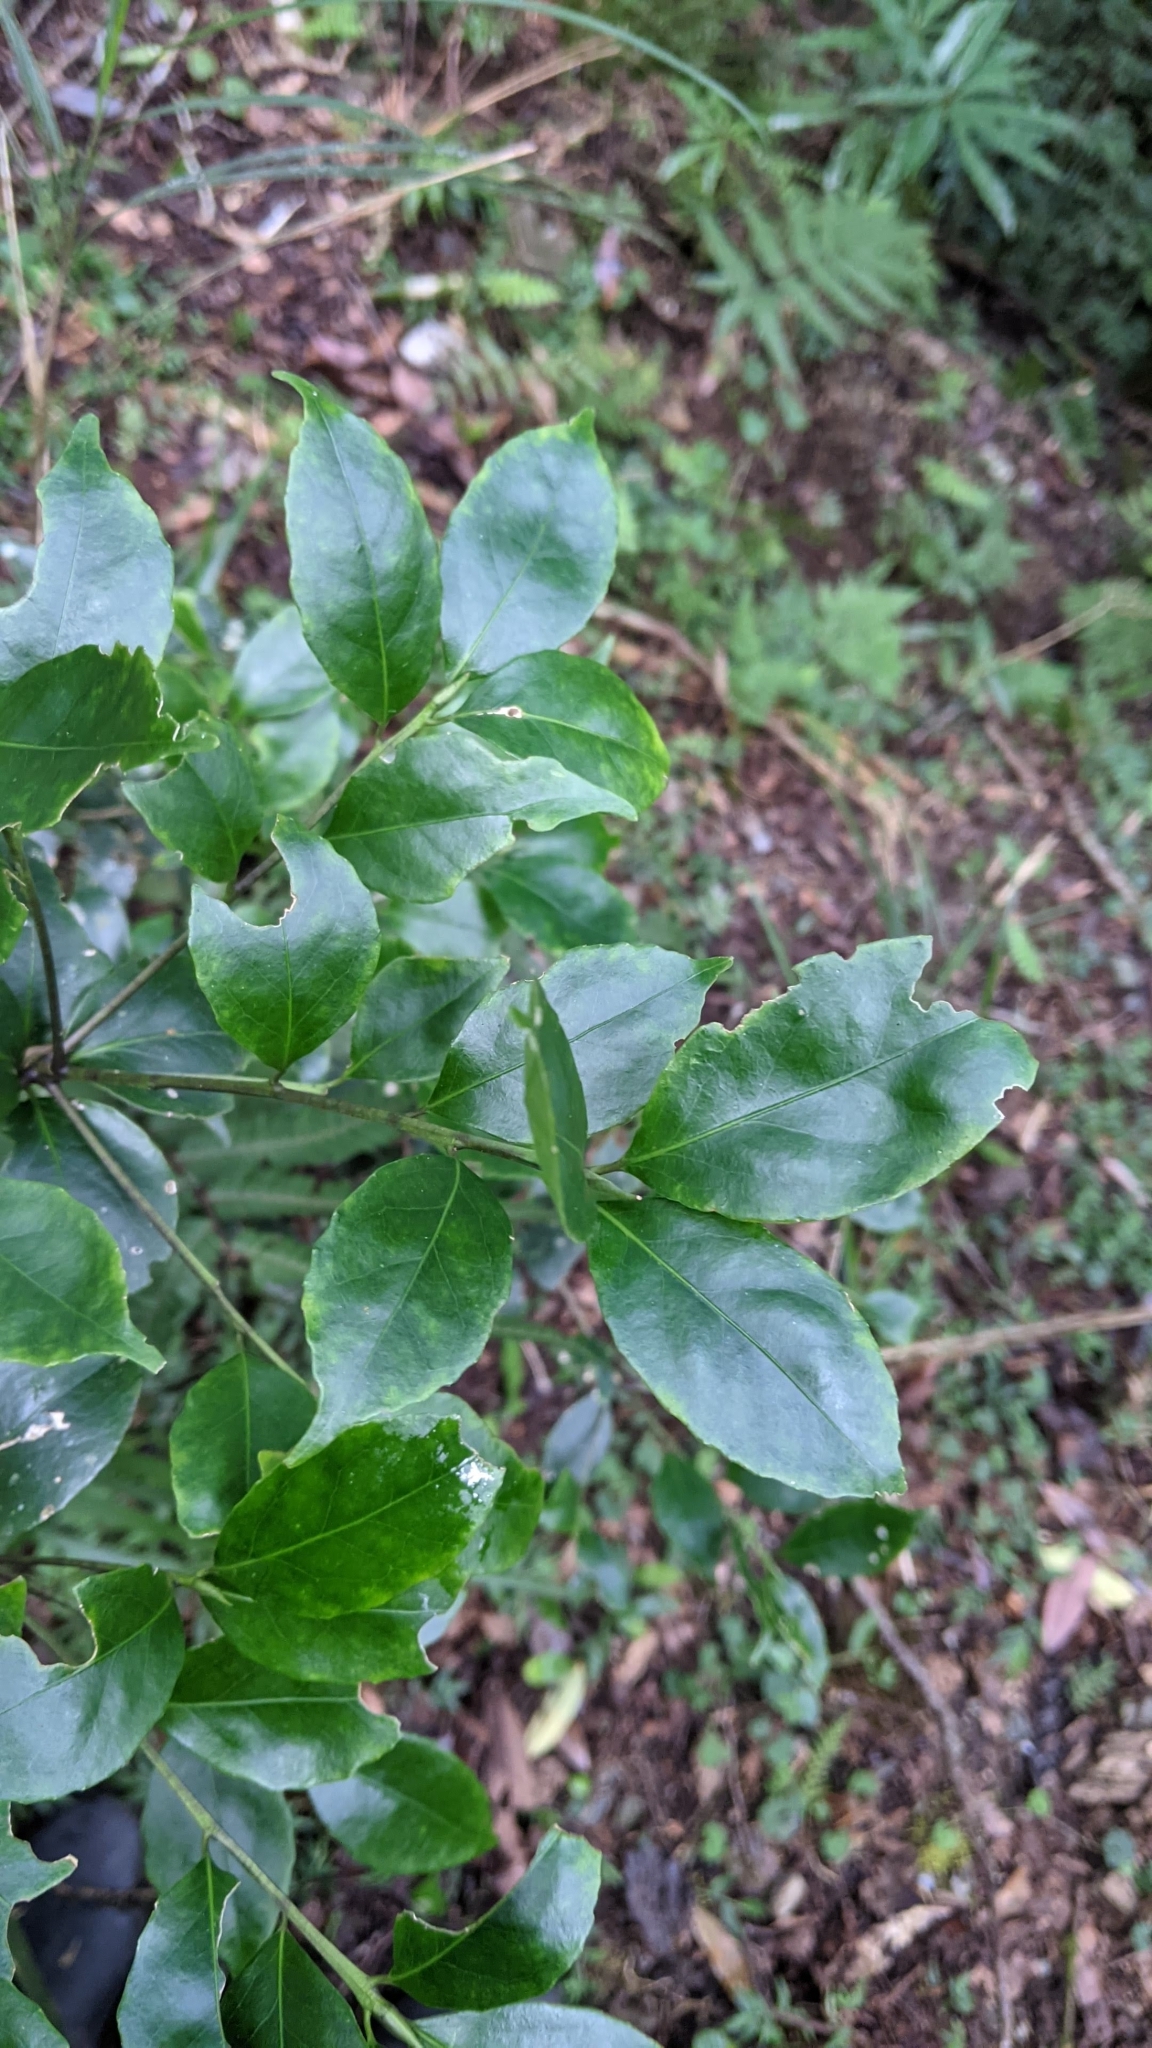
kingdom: Plantae
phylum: Tracheophyta
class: Magnoliopsida
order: Aquifoliales
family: Aquifoliaceae
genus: Ilex
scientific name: Ilex uraiensis
